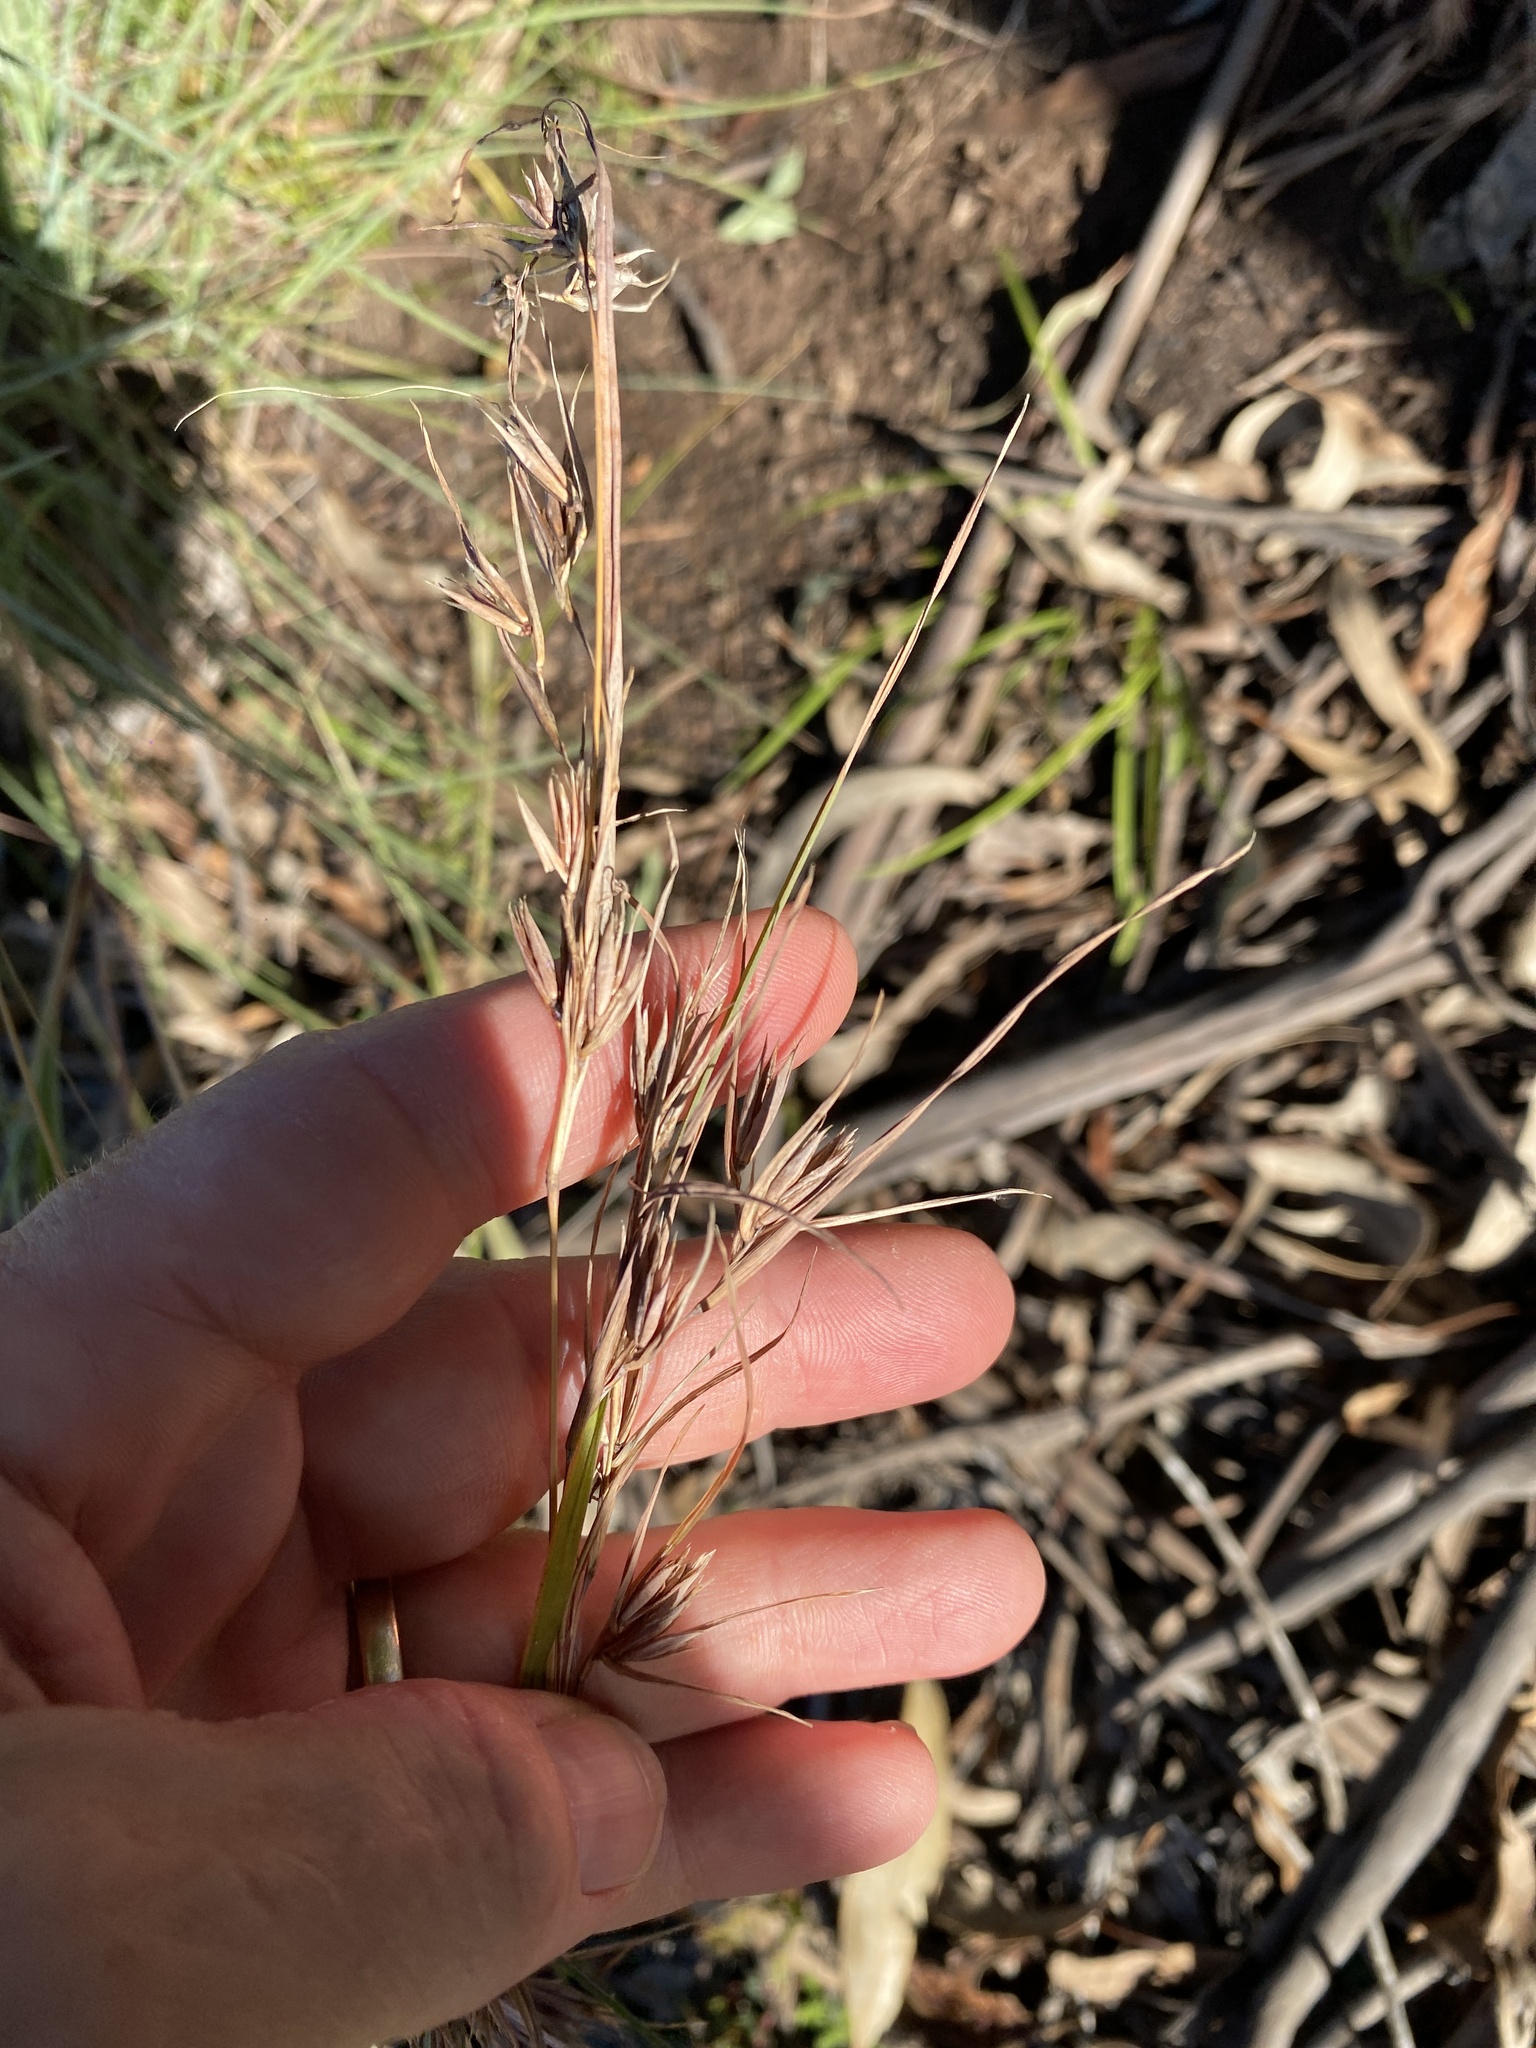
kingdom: Plantae
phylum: Tracheophyta
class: Liliopsida
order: Poales
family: Poaceae
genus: Themeda
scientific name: Themeda triandra
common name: Kangaroo grass
